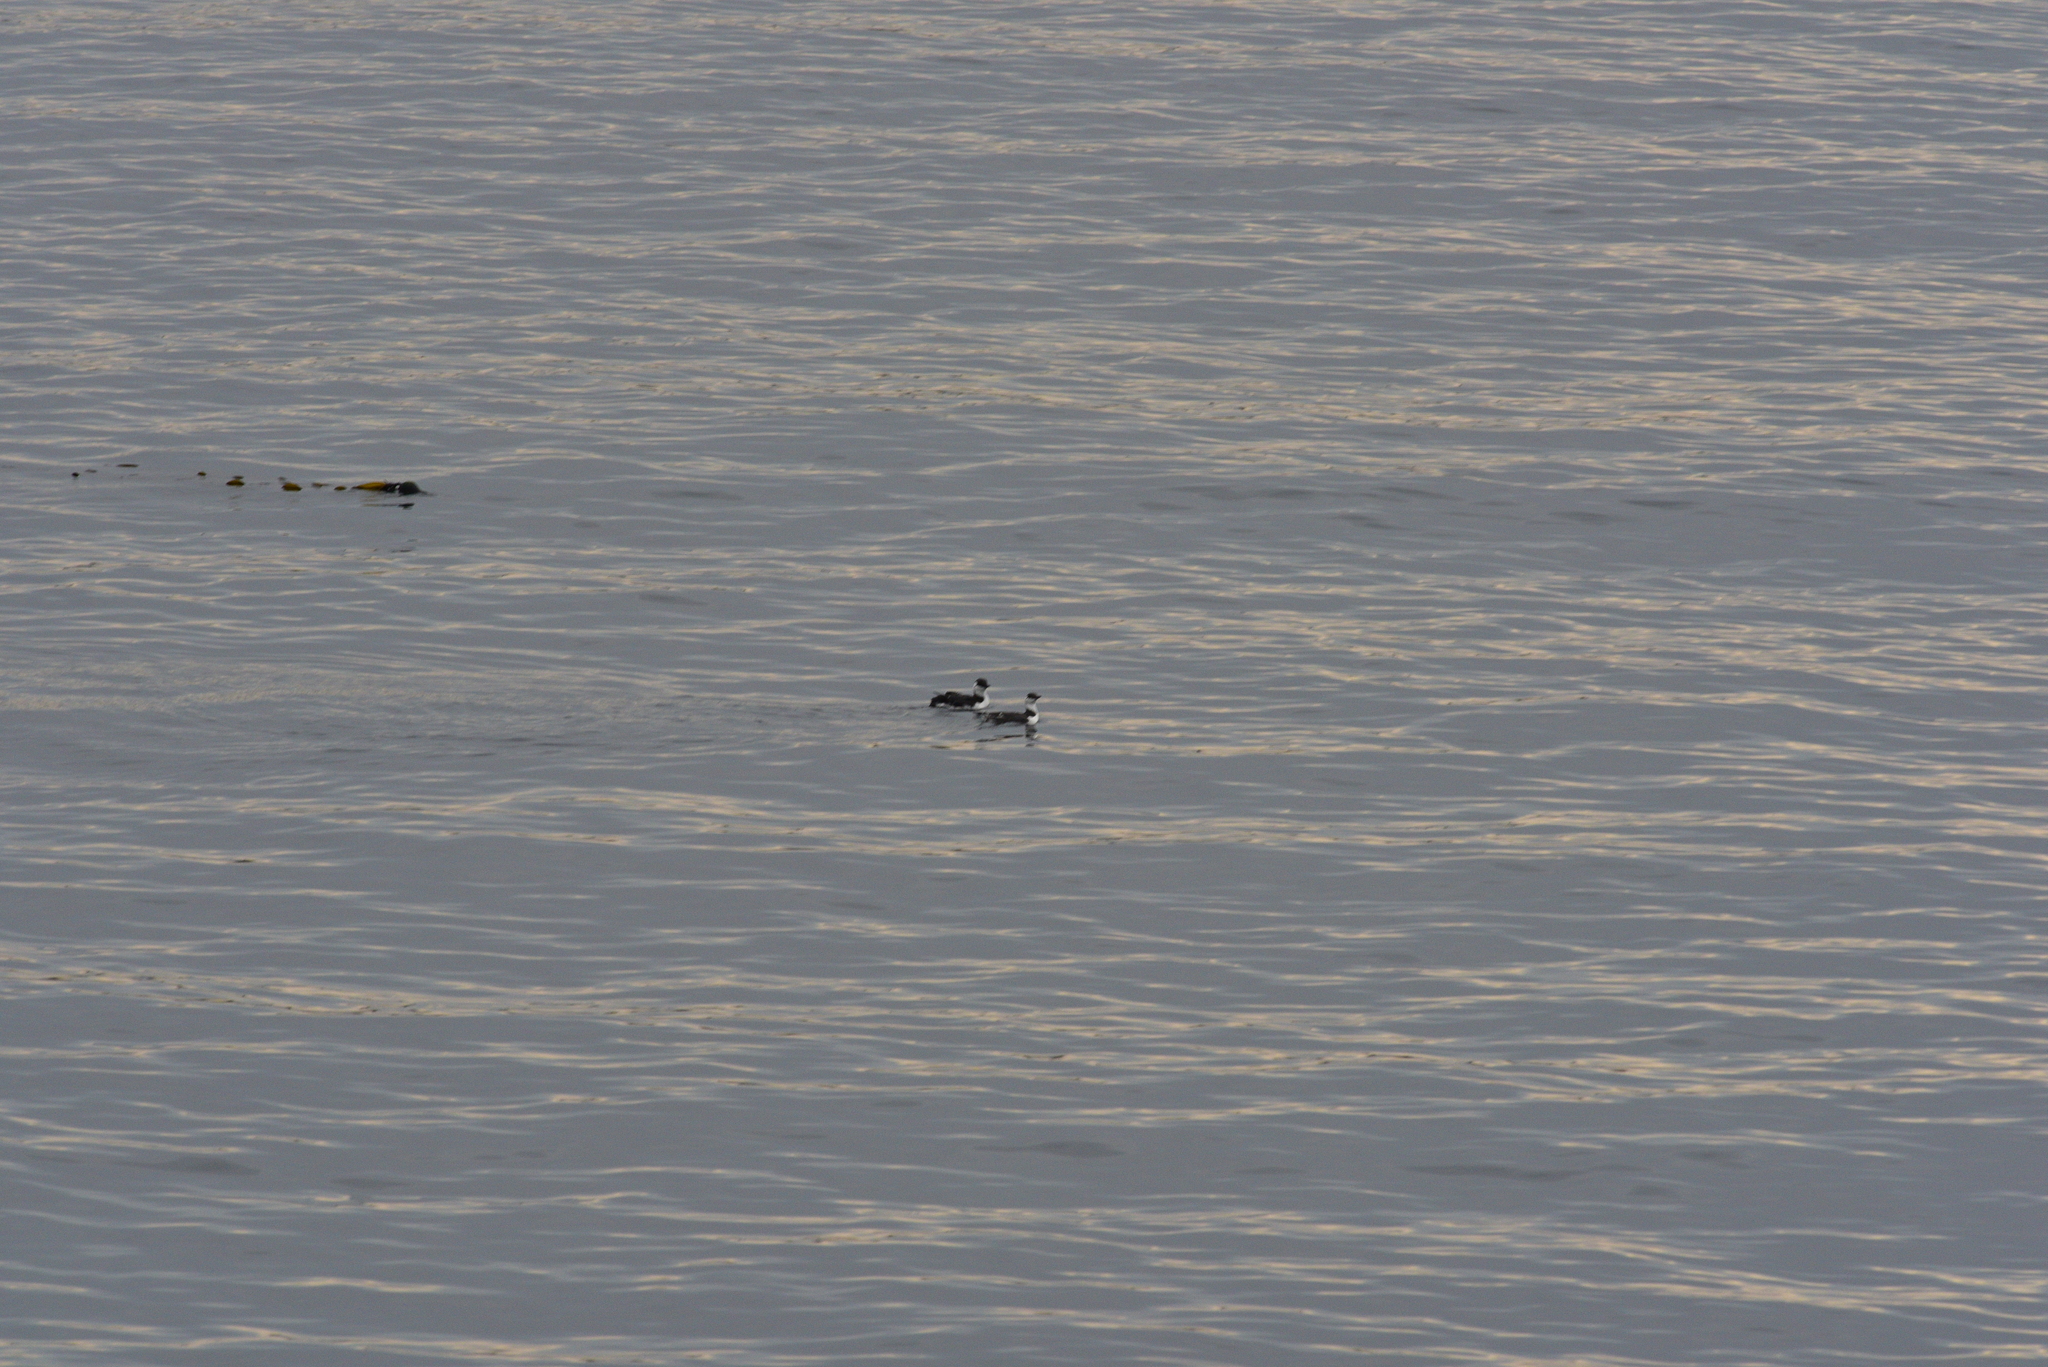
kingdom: Animalia
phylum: Chordata
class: Aves
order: Charadriiformes
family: Alcidae
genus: Uria
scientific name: Uria aalge
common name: Common murre
